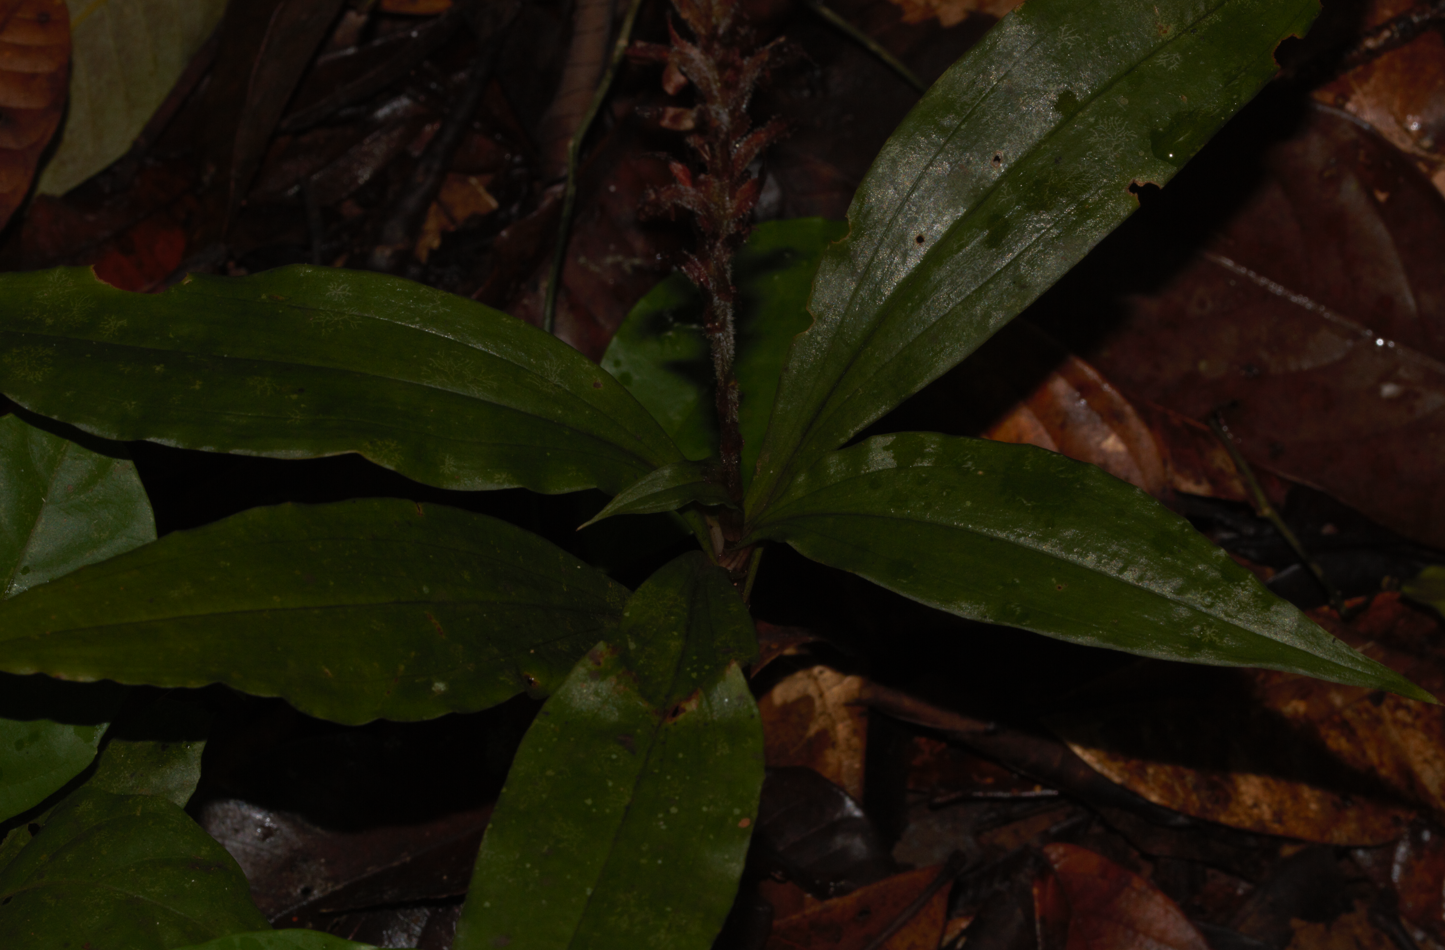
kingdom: Plantae
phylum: Tracheophyta
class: Liliopsida
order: Asparagales
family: Orchidaceae
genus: Aspidogyne
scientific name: Aspidogyne peteriana
